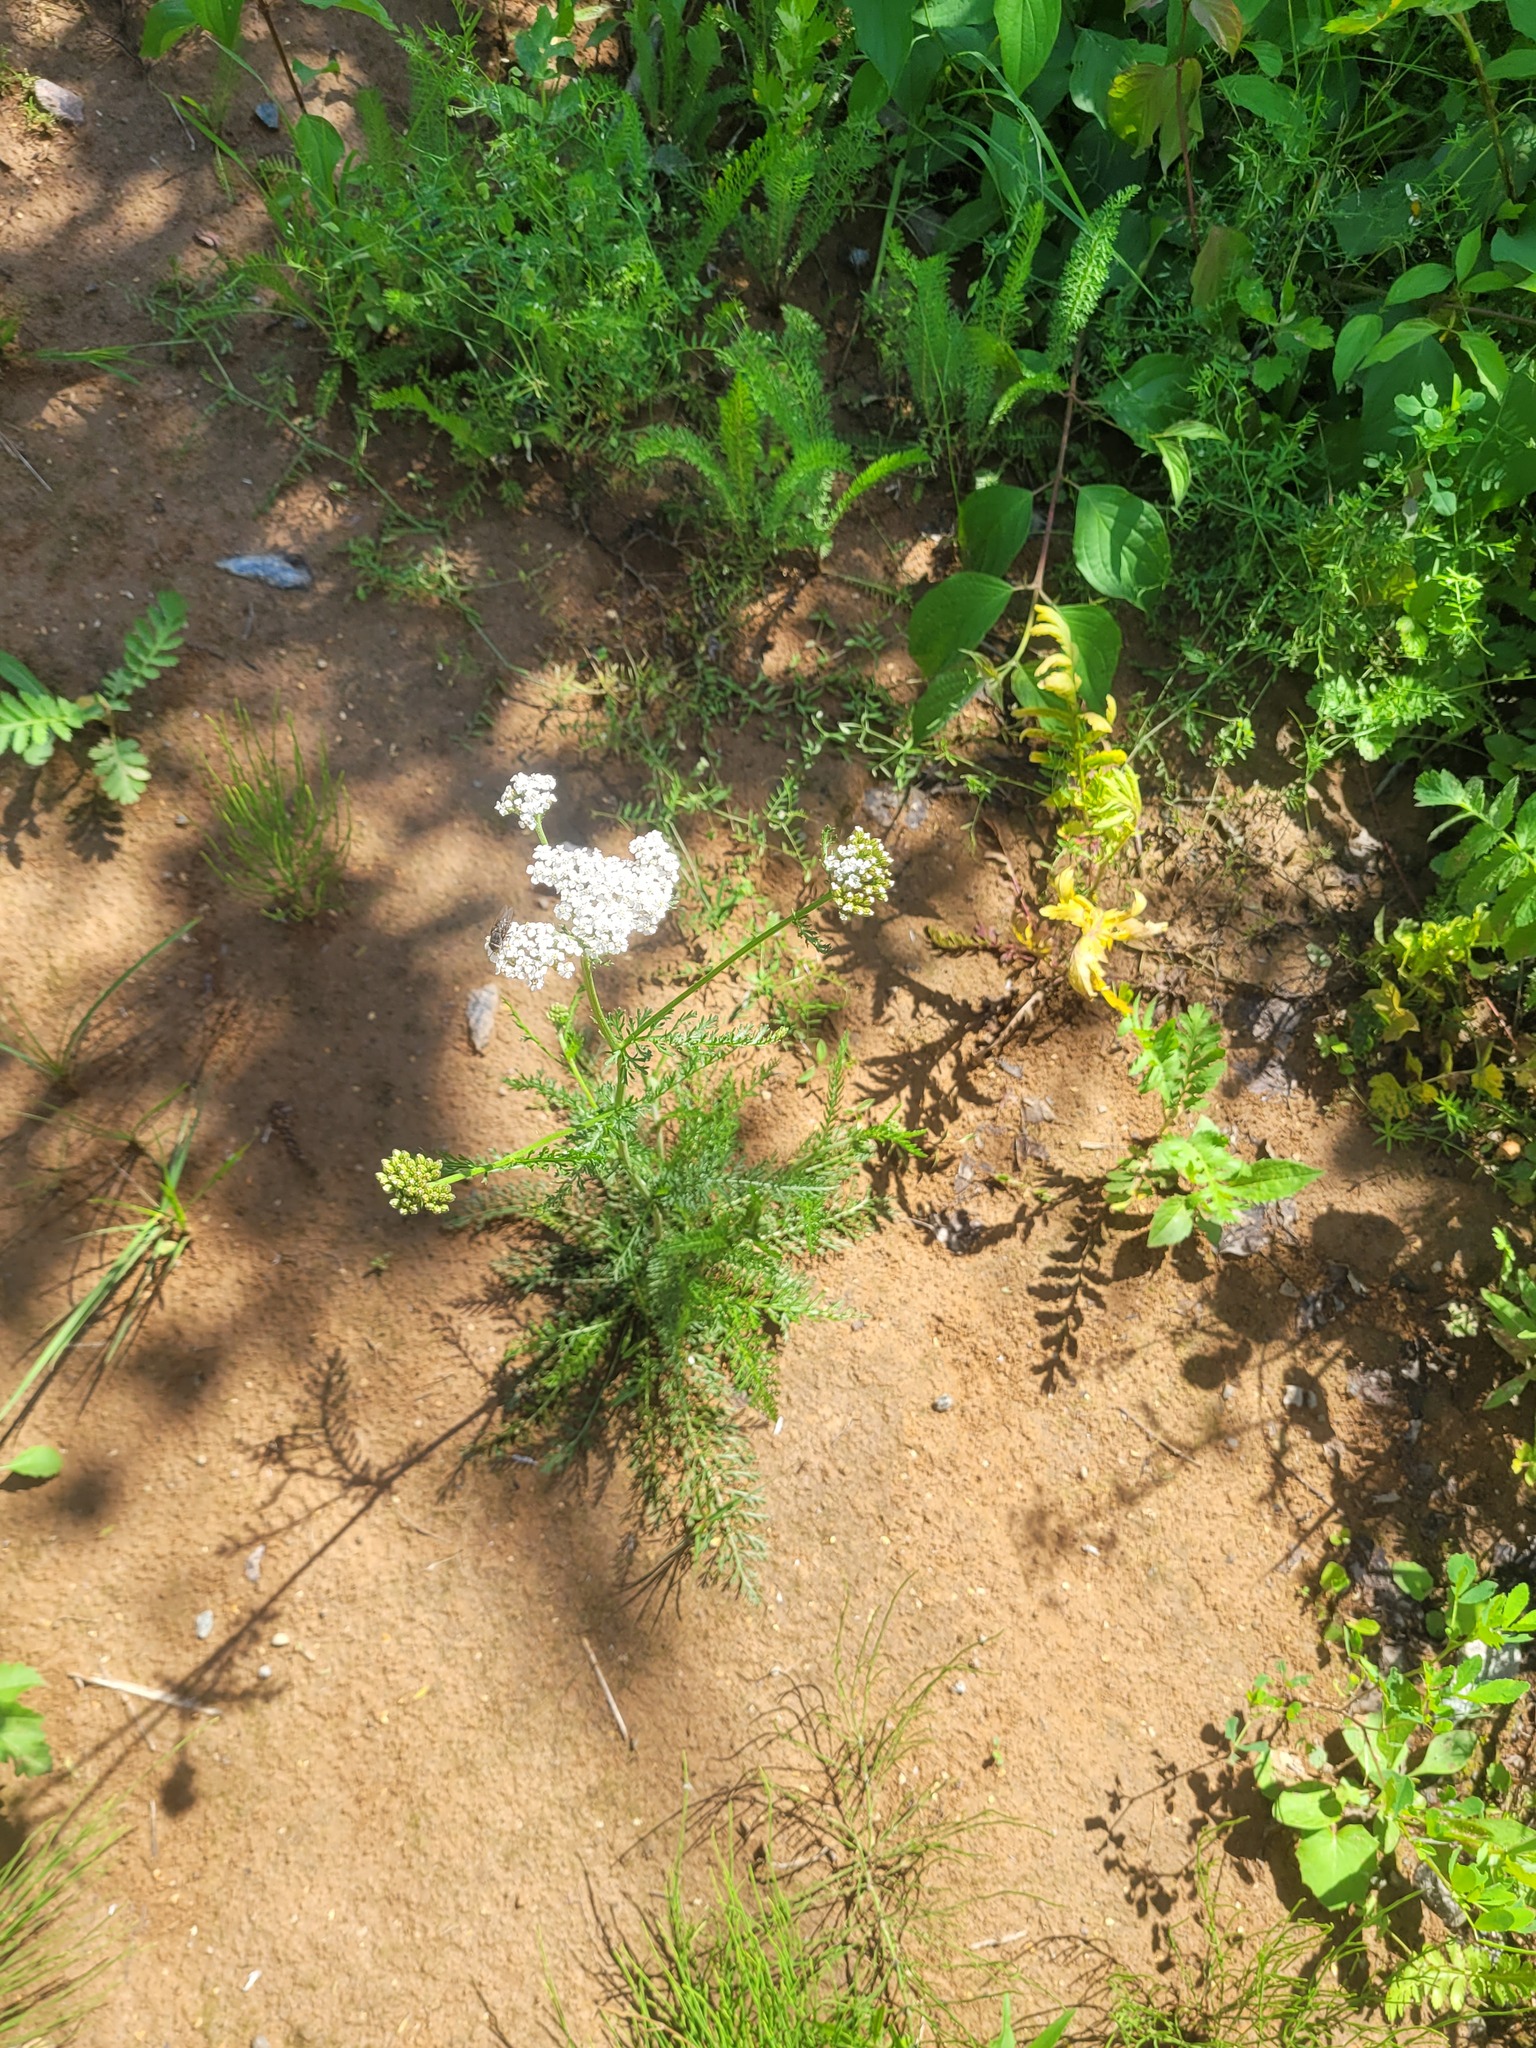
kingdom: Plantae
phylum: Tracheophyta
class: Magnoliopsida
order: Asterales
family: Asteraceae
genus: Achillea
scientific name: Achillea millefolium
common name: Yarrow
